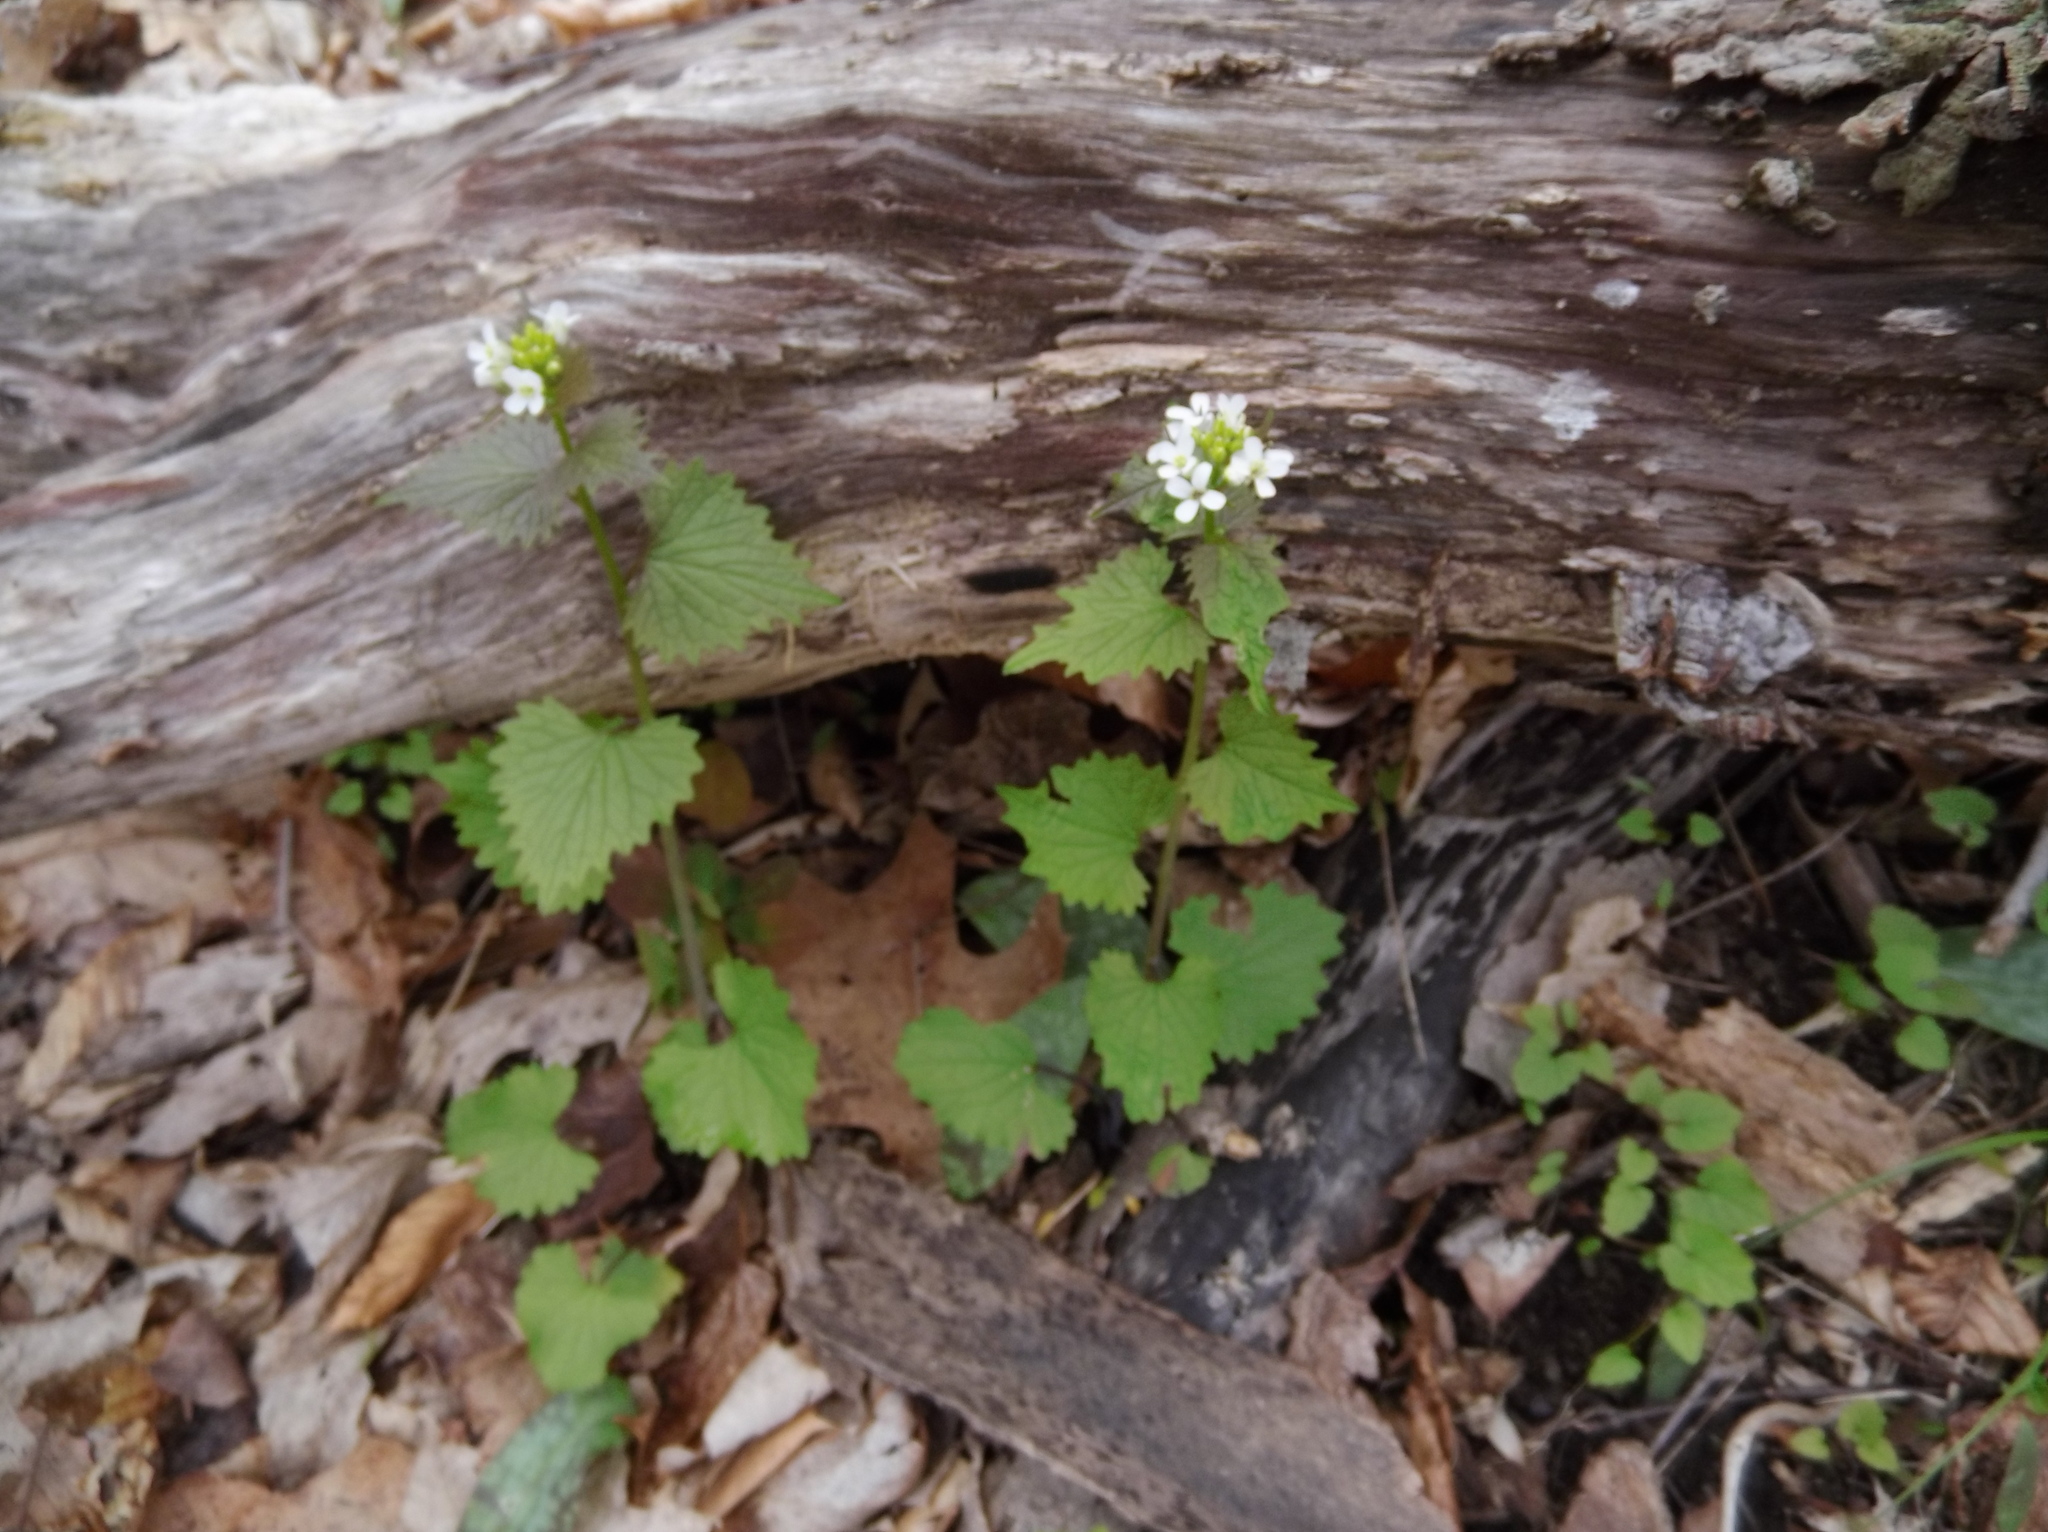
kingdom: Plantae
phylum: Tracheophyta
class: Magnoliopsida
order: Brassicales
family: Brassicaceae
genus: Alliaria
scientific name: Alliaria petiolata
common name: Garlic mustard
